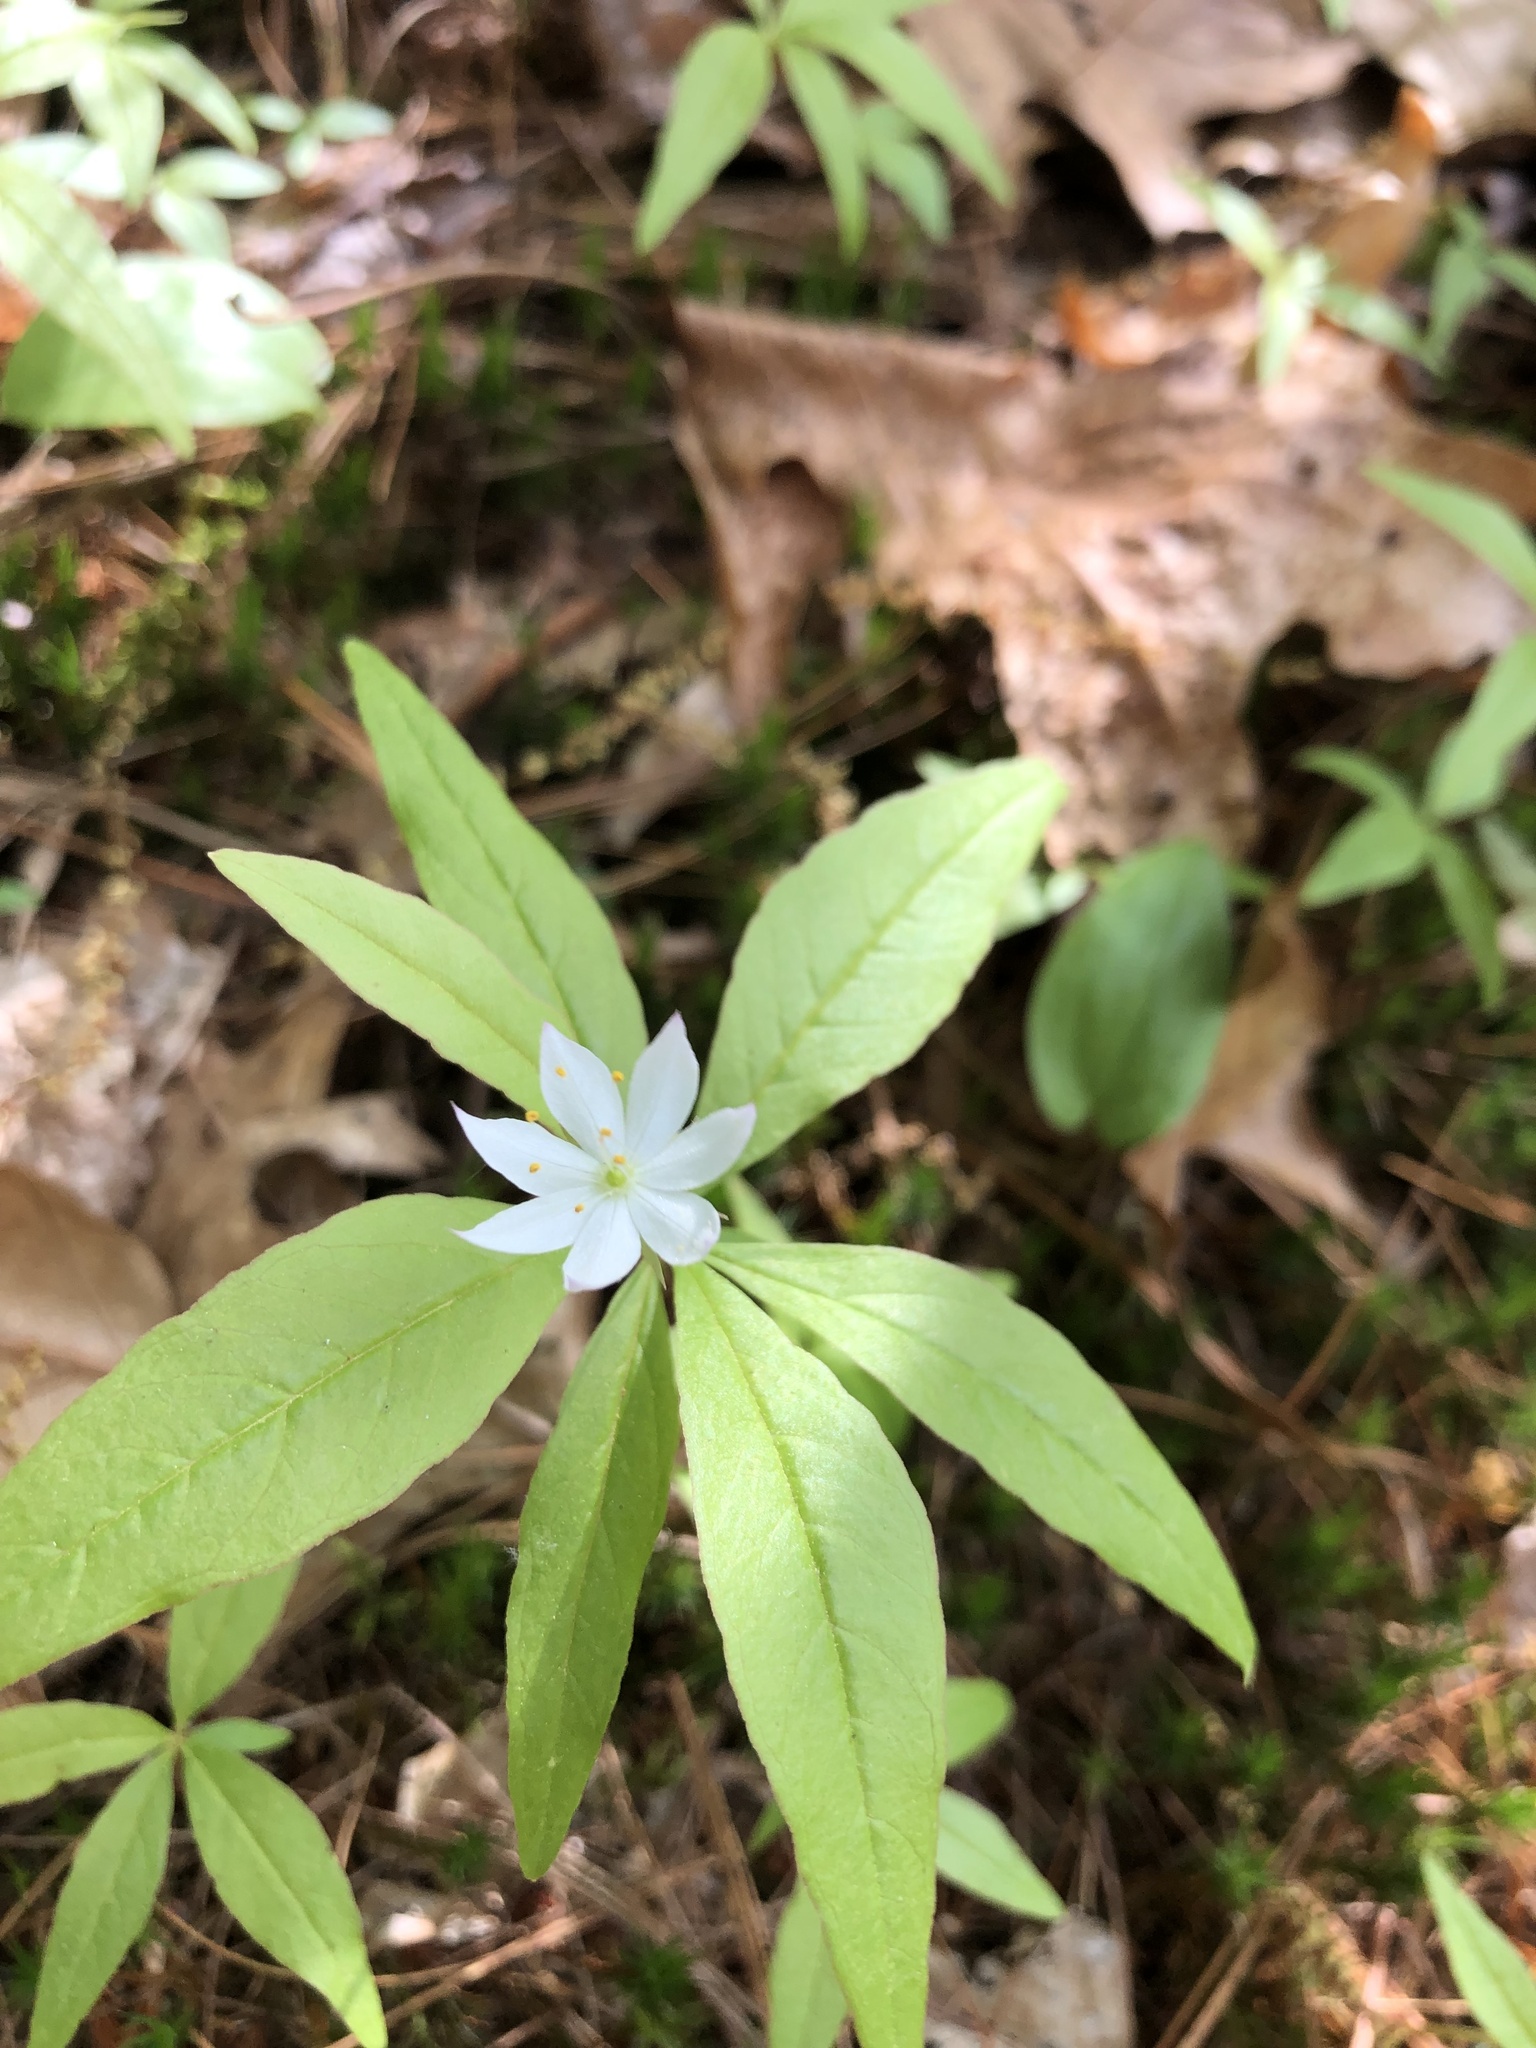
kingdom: Plantae
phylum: Tracheophyta
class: Magnoliopsida
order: Ericales
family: Primulaceae
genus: Lysimachia
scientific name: Lysimachia borealis
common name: American starflower
